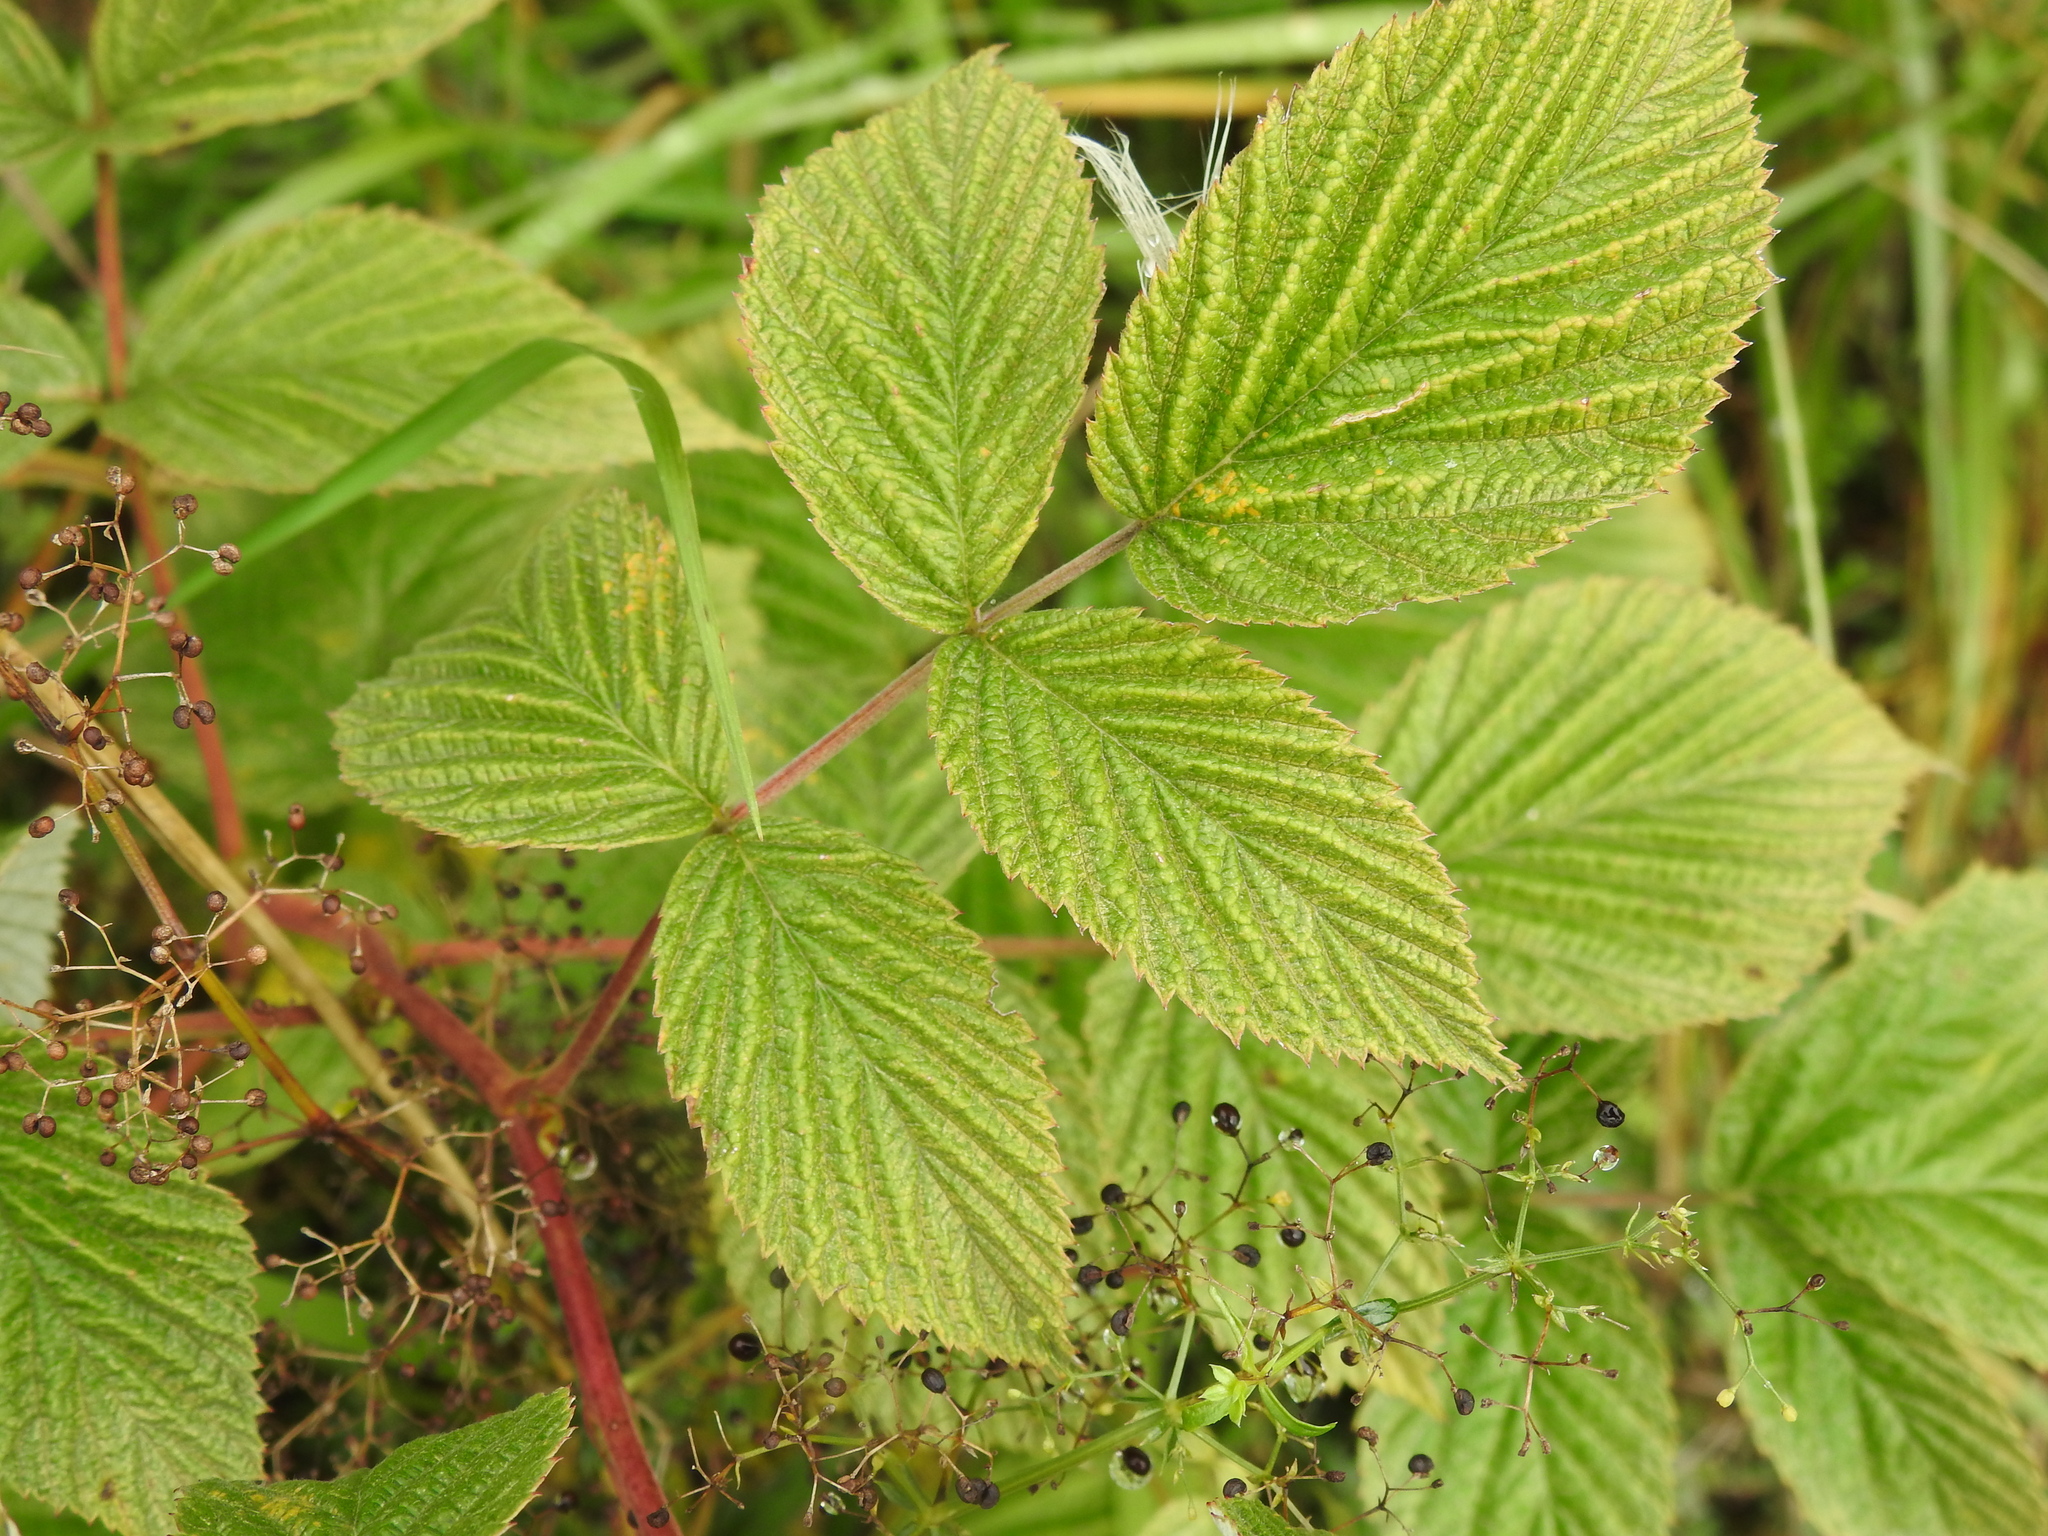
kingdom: Plantae
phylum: Tracheophyta
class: Magnoliopsida
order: Rosales
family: Rosaceae
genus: Rubus
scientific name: Rubus idaeus
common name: Raspberry
